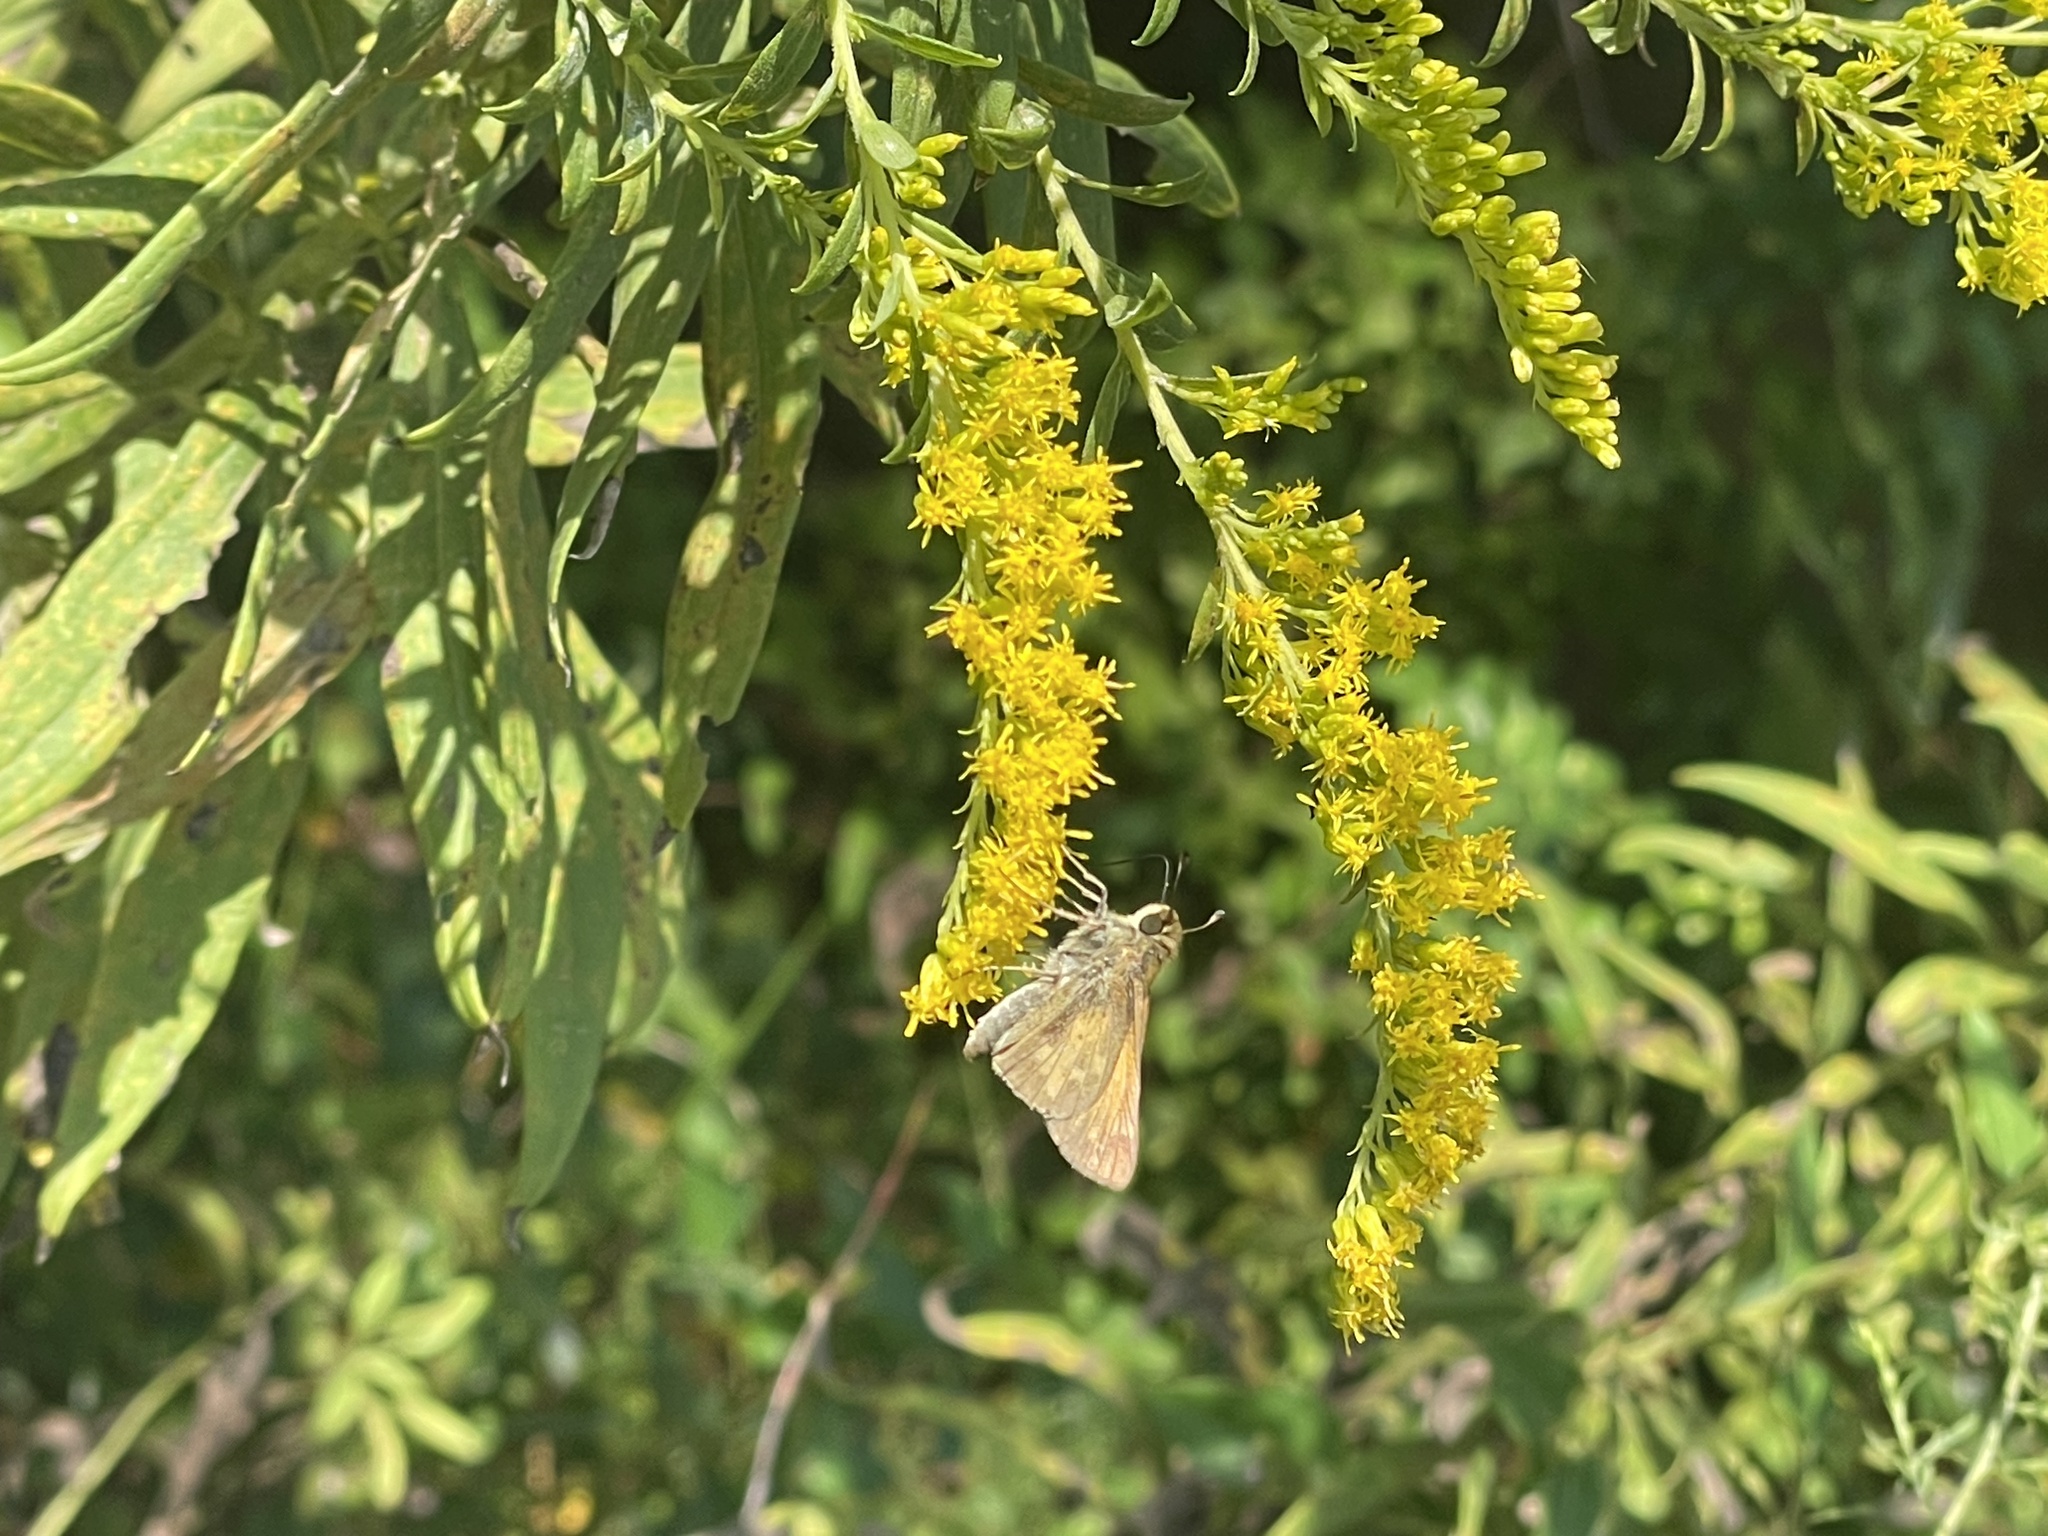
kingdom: Animalia
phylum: Arthropoda
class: Insecta
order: Lepidoptera
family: Hesperiidae
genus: Atalopedes
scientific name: Atalopedes
